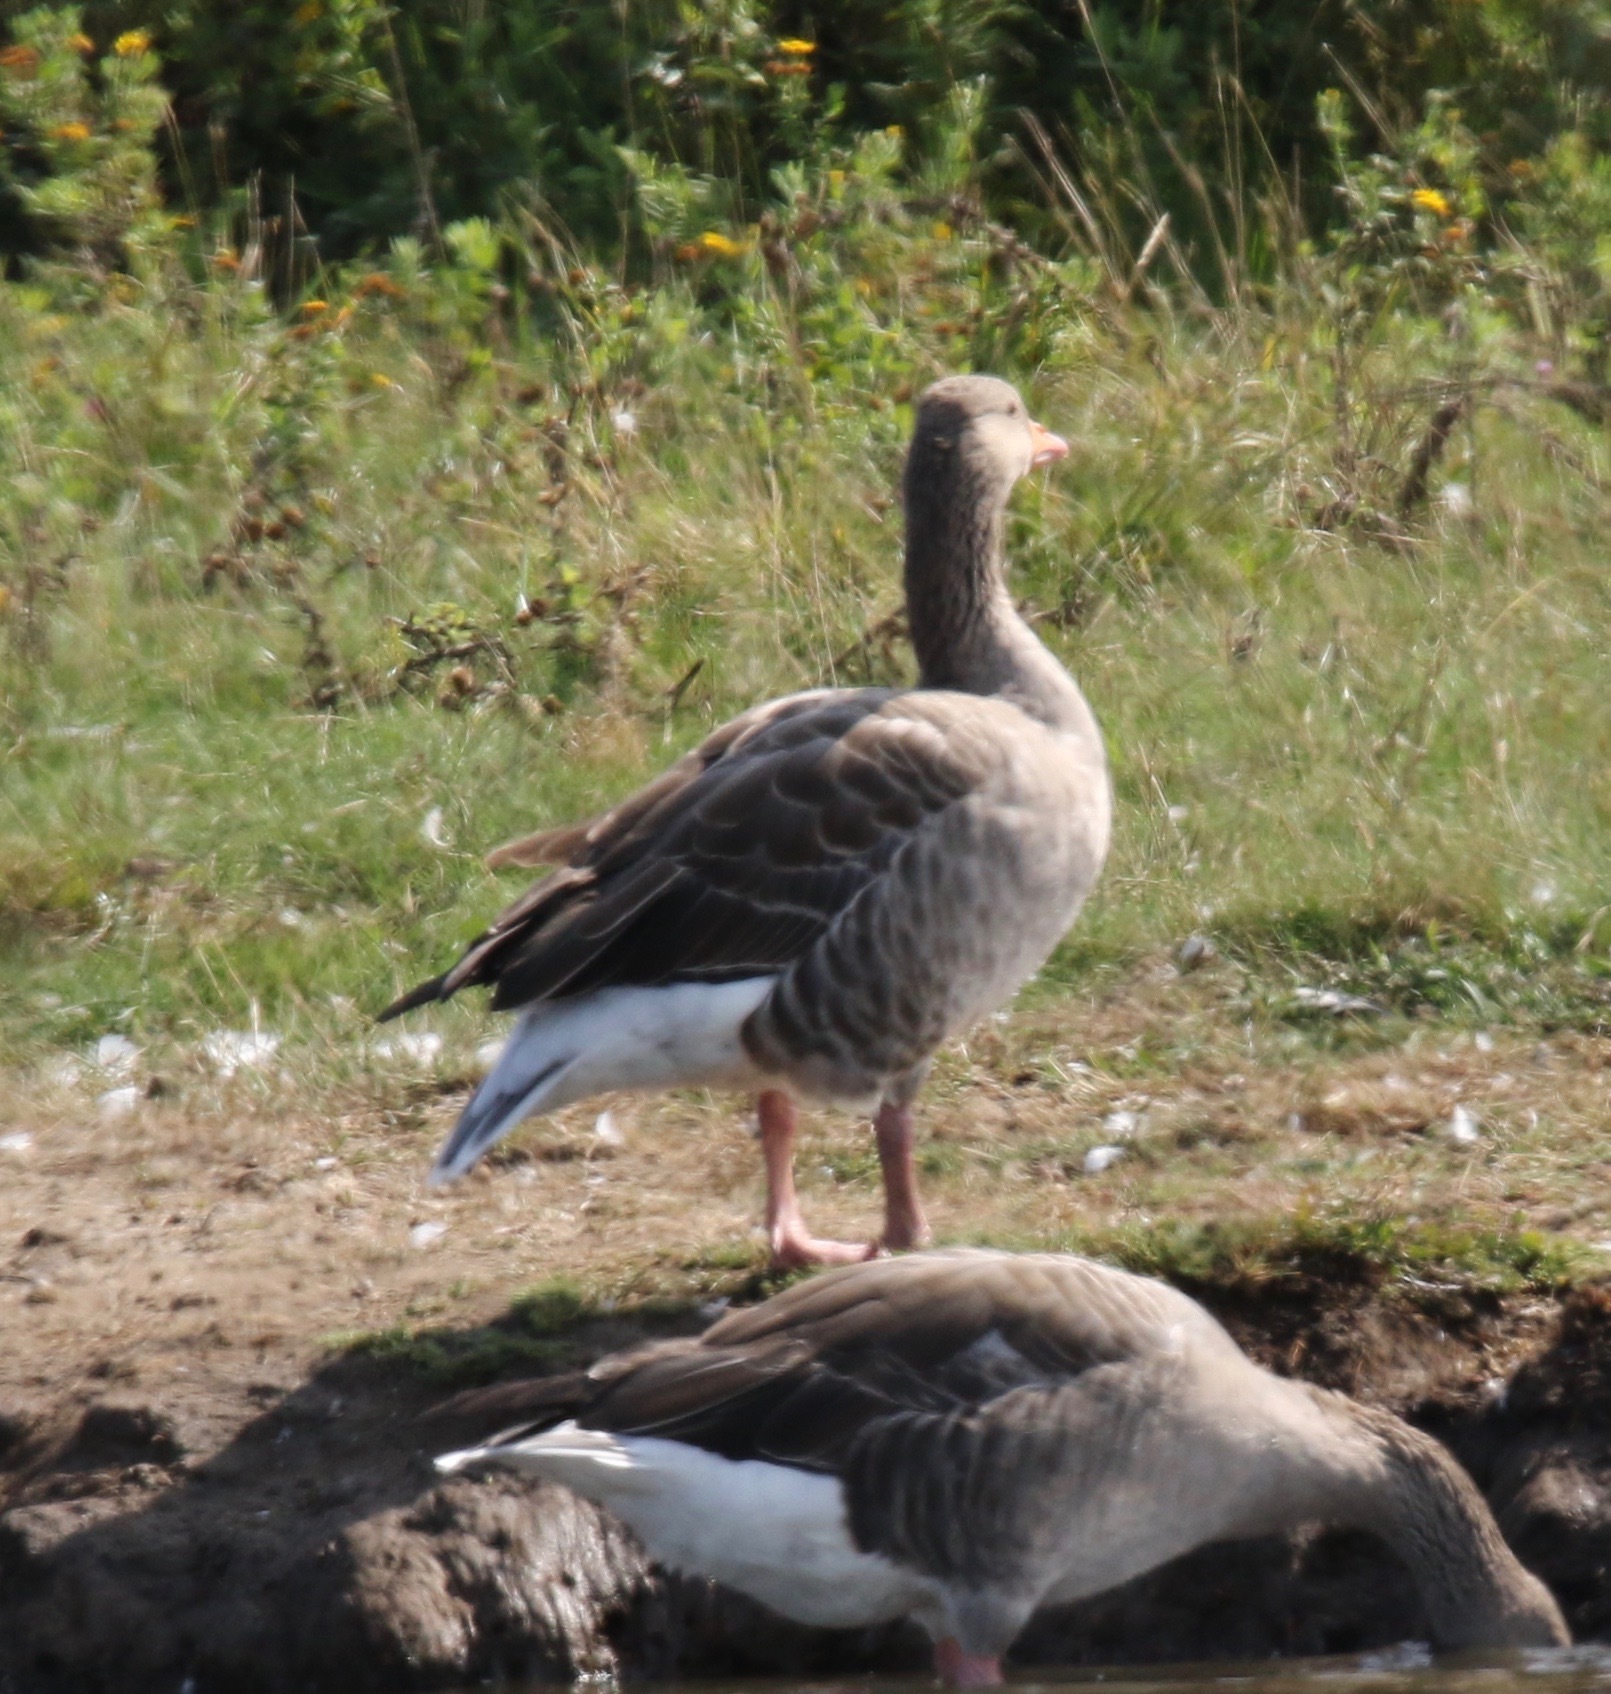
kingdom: Animalia
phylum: Chordata
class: Aves
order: Anseriformes
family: Anatidae
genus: Anser
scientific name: Anser anser
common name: Greylag goose
